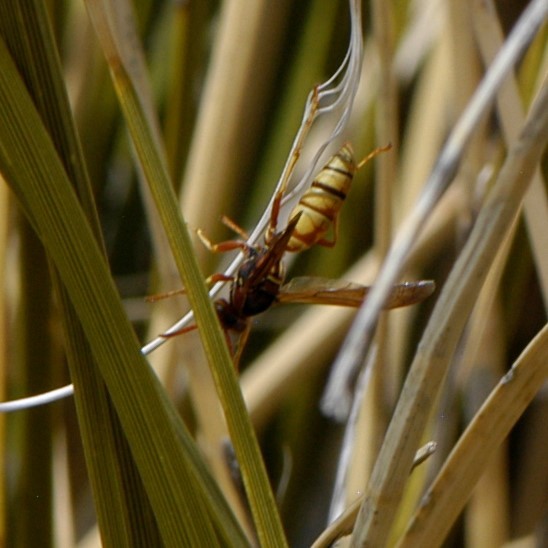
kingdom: Animalia
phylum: Arthropoda
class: Insecta
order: Hymenoptera
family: Eumenidae
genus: Polistes
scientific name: Polistes aurifer
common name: Paper wasp
